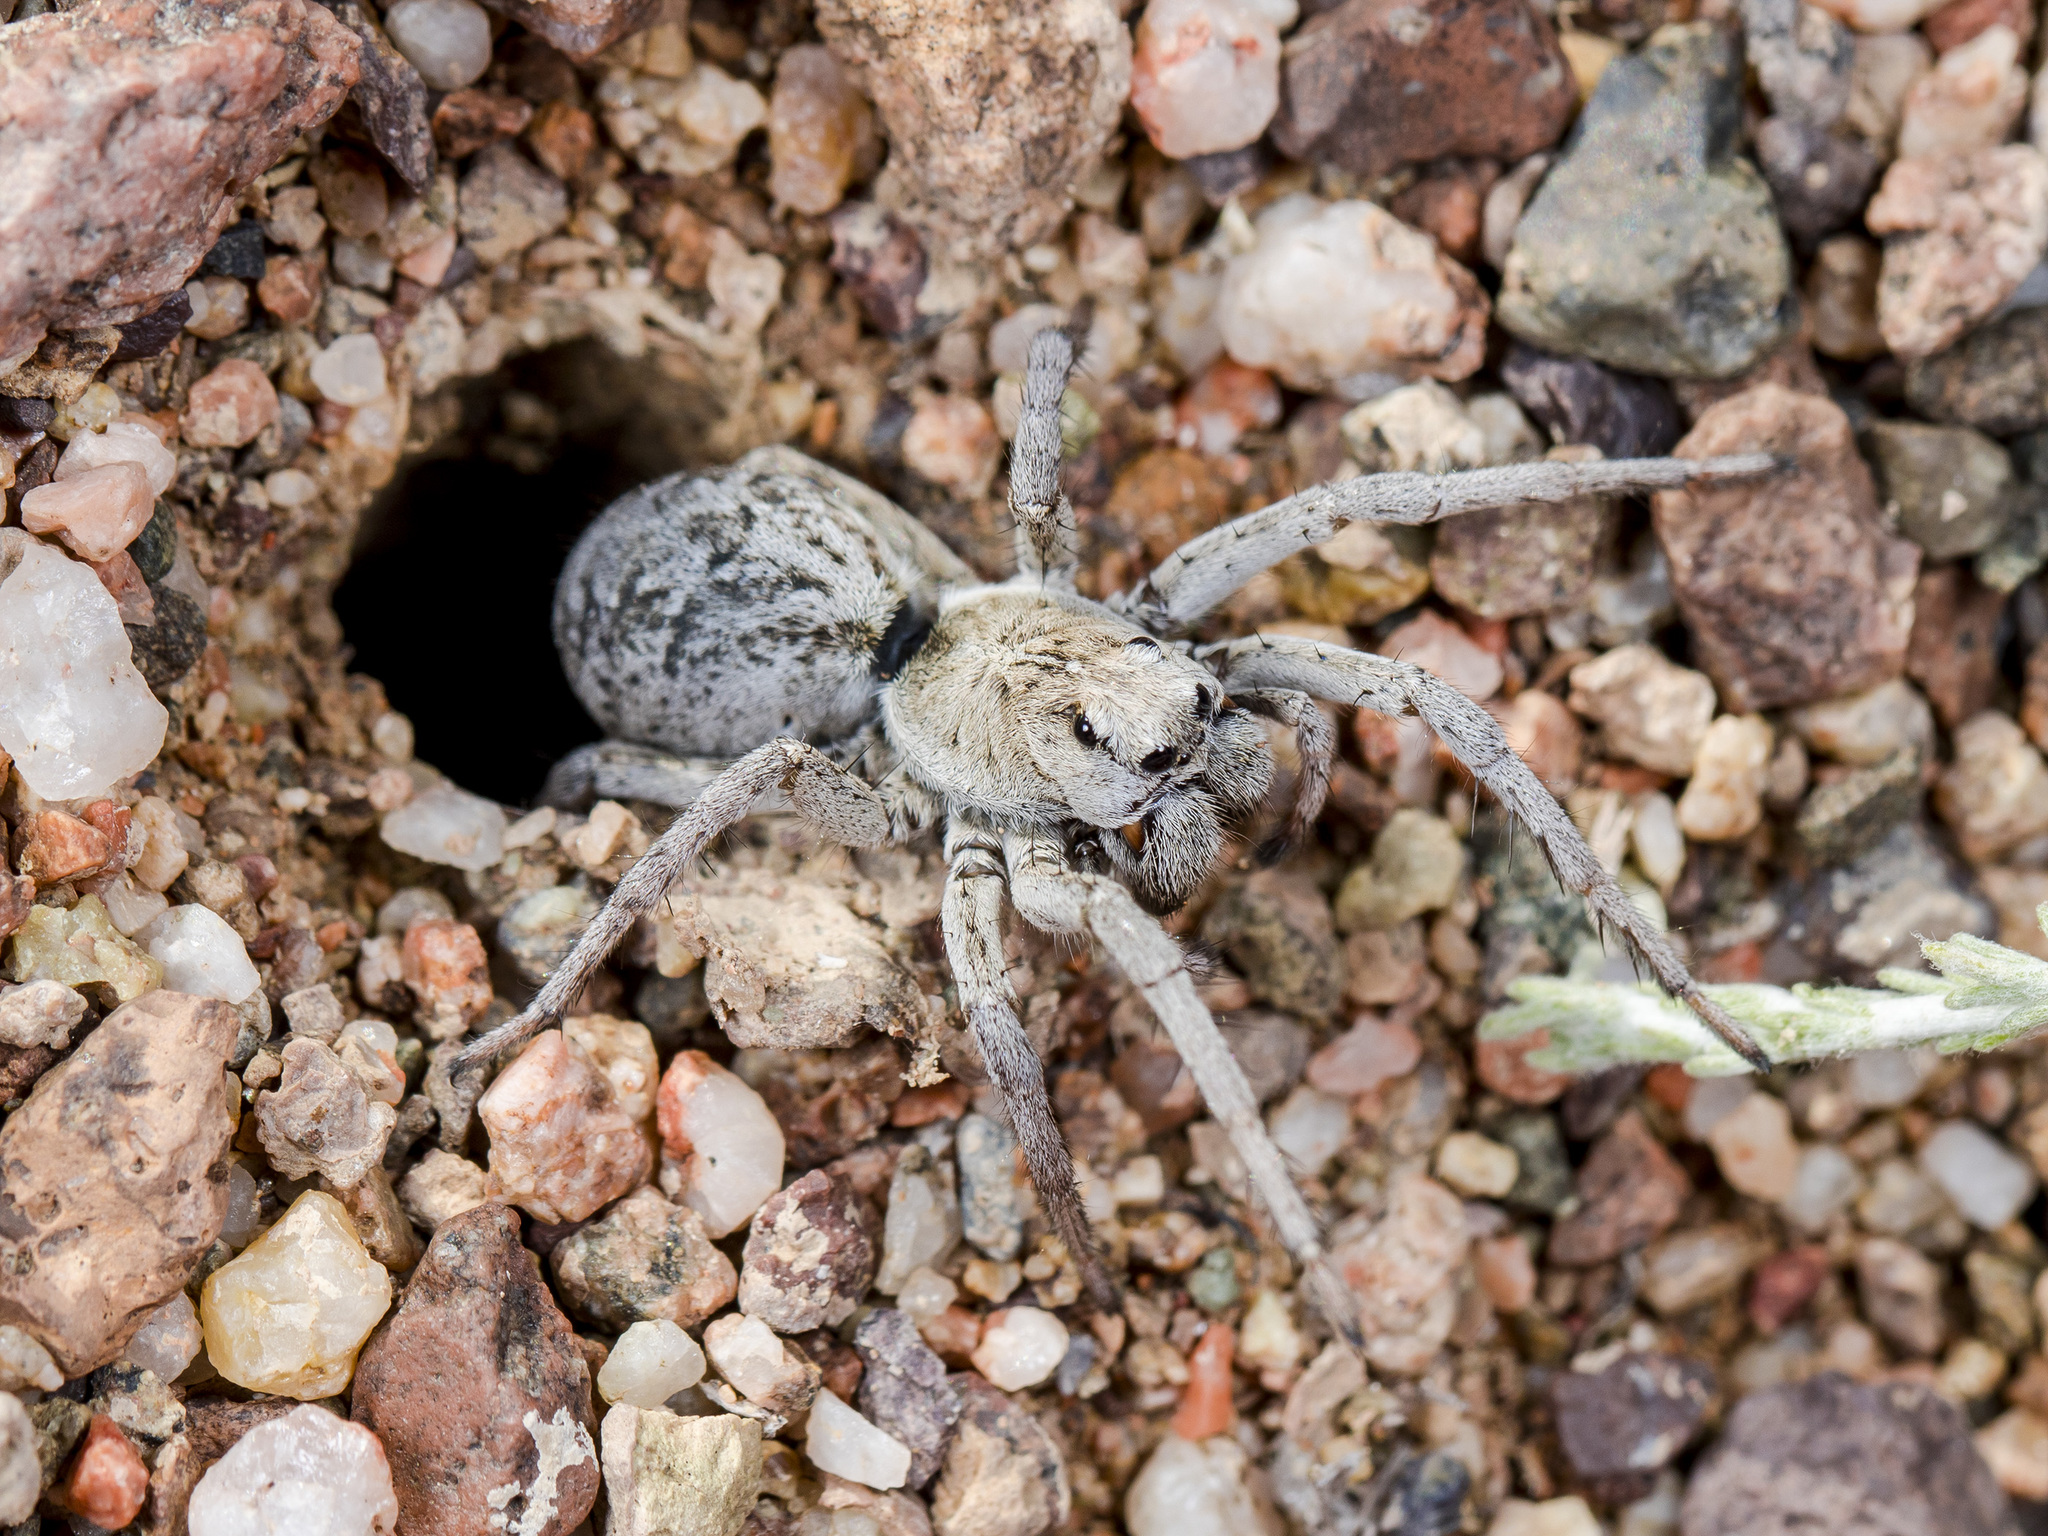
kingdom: Animalia
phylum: Arthropoda
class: Arachnida
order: Araneae
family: Lycosidae
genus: Alopecosa
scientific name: Alopecosa marikovskyi
